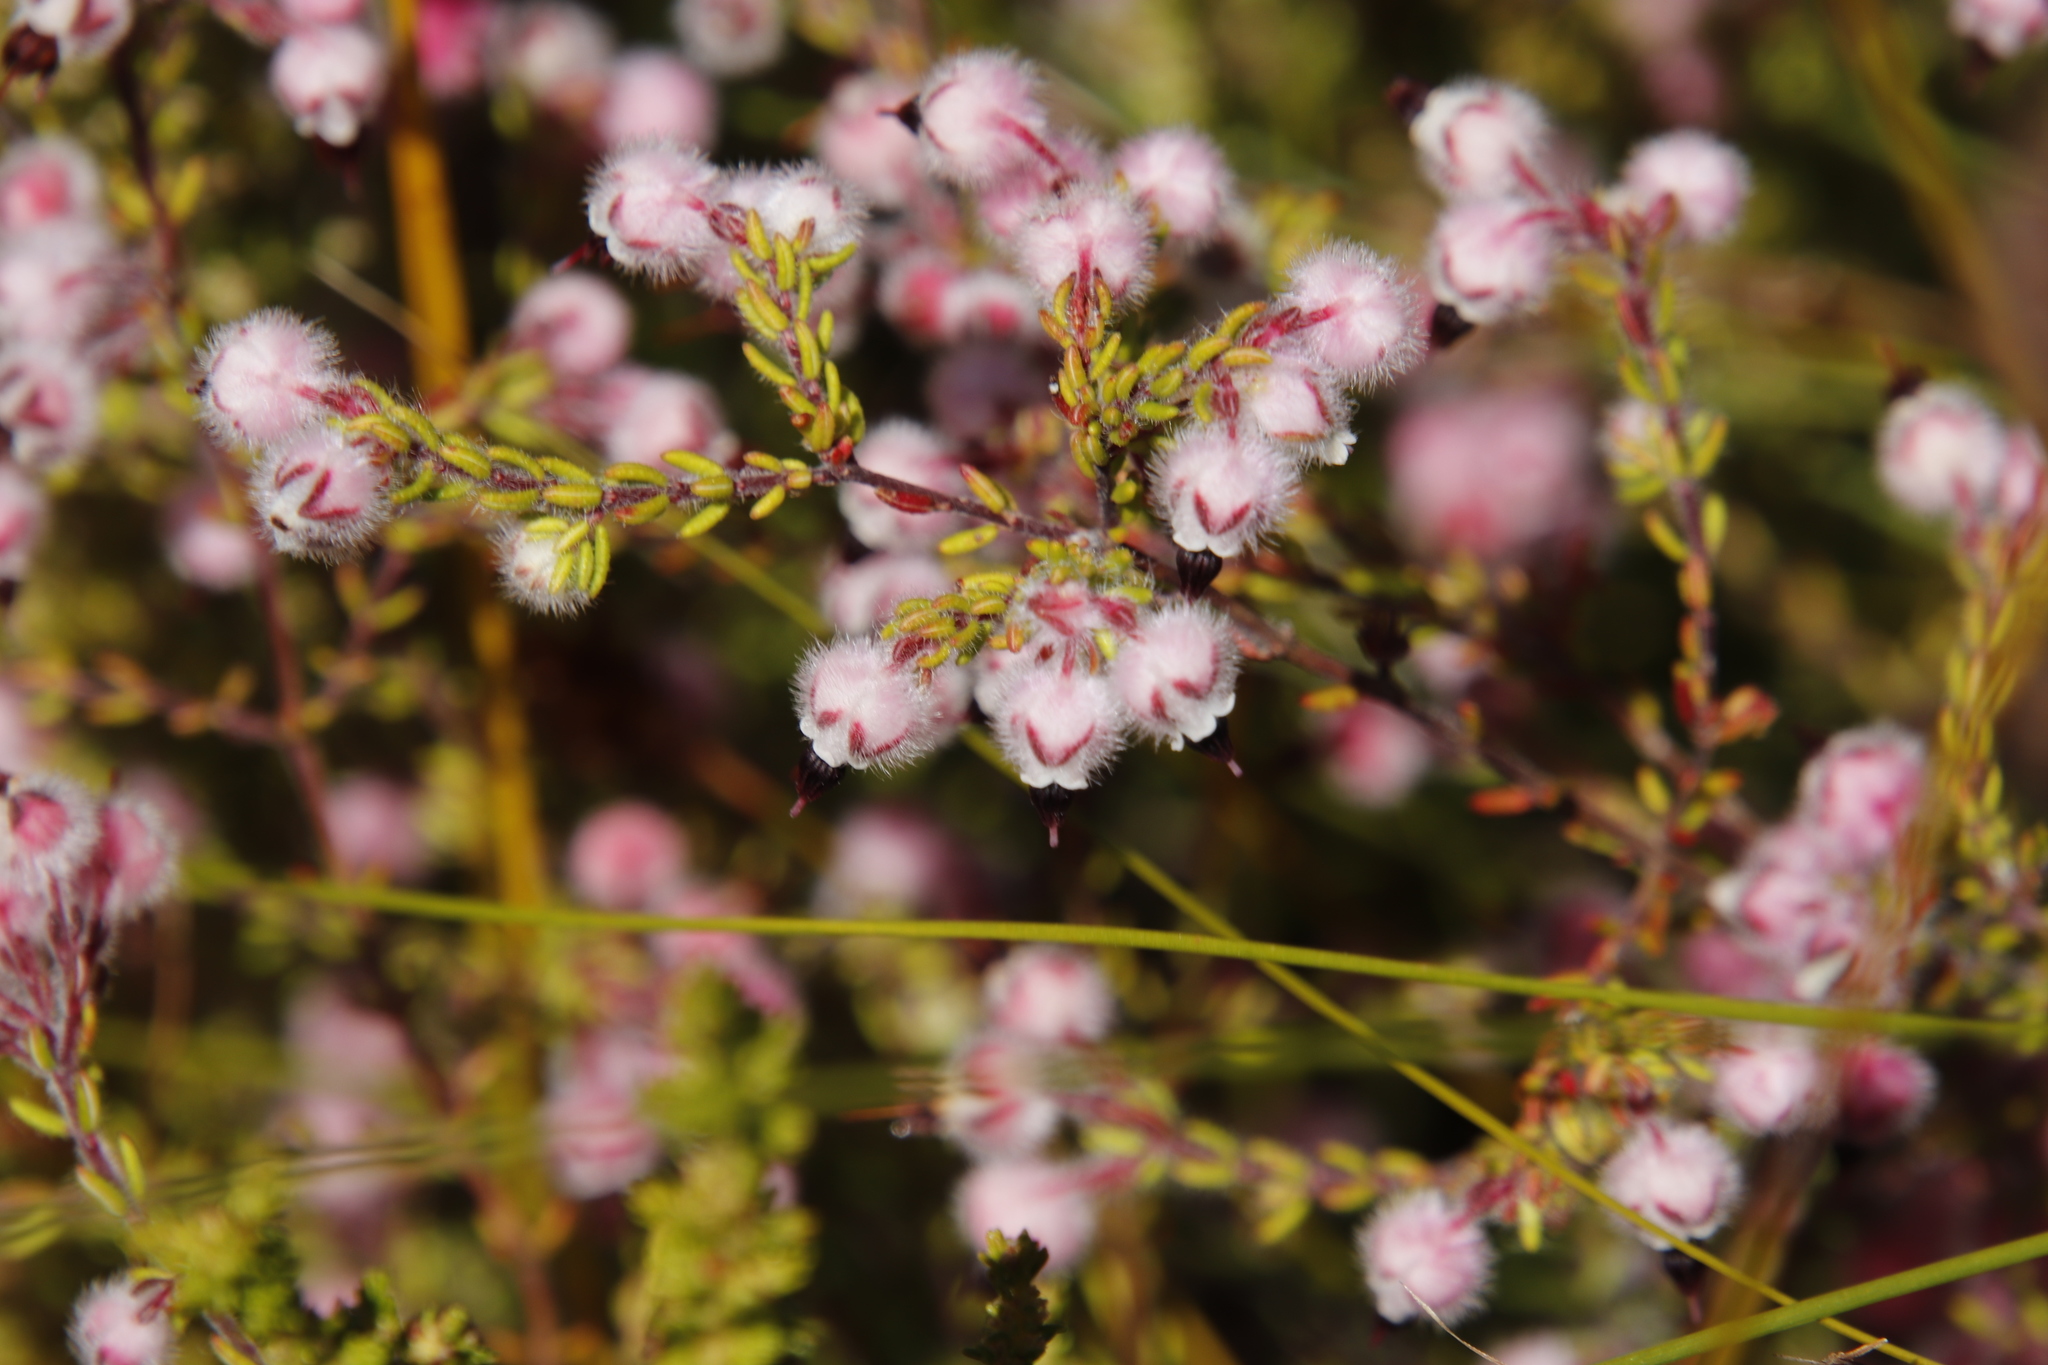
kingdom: Plantae
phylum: Tracheophyta
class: Magnoliopsida
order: Ericales
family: Ericaceae
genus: Erica
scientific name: Erica bruniades
